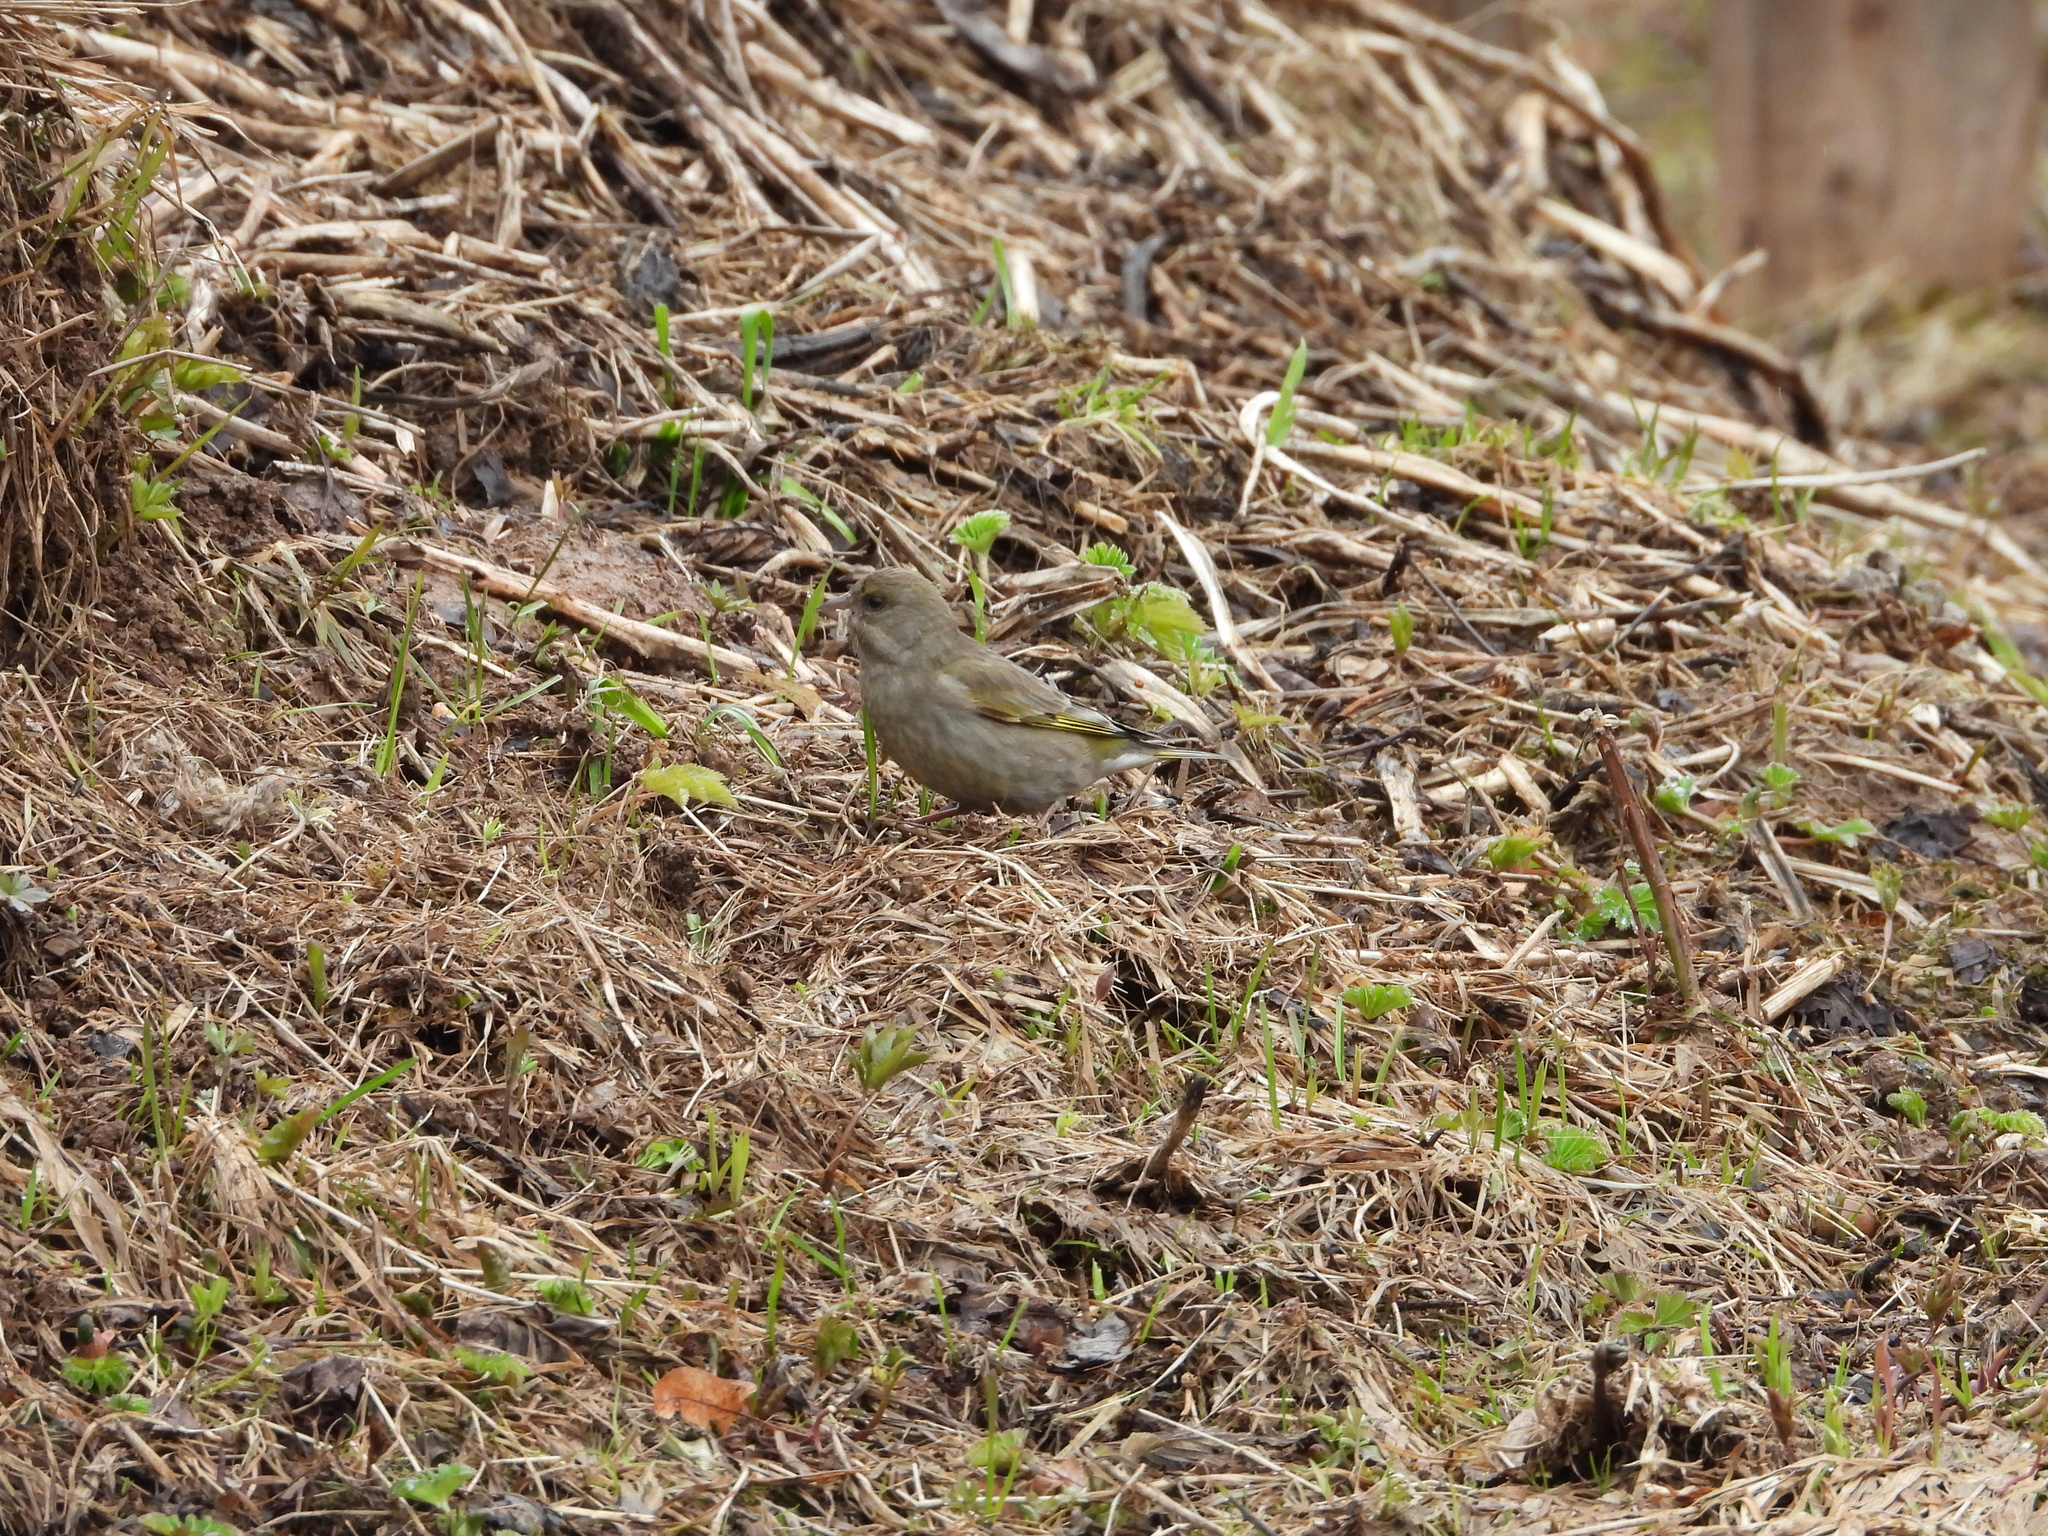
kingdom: Plantae
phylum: Tracheophyta
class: Liliopsida
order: Poales
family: Poaceae
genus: Chloris
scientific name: Chloris chloris
